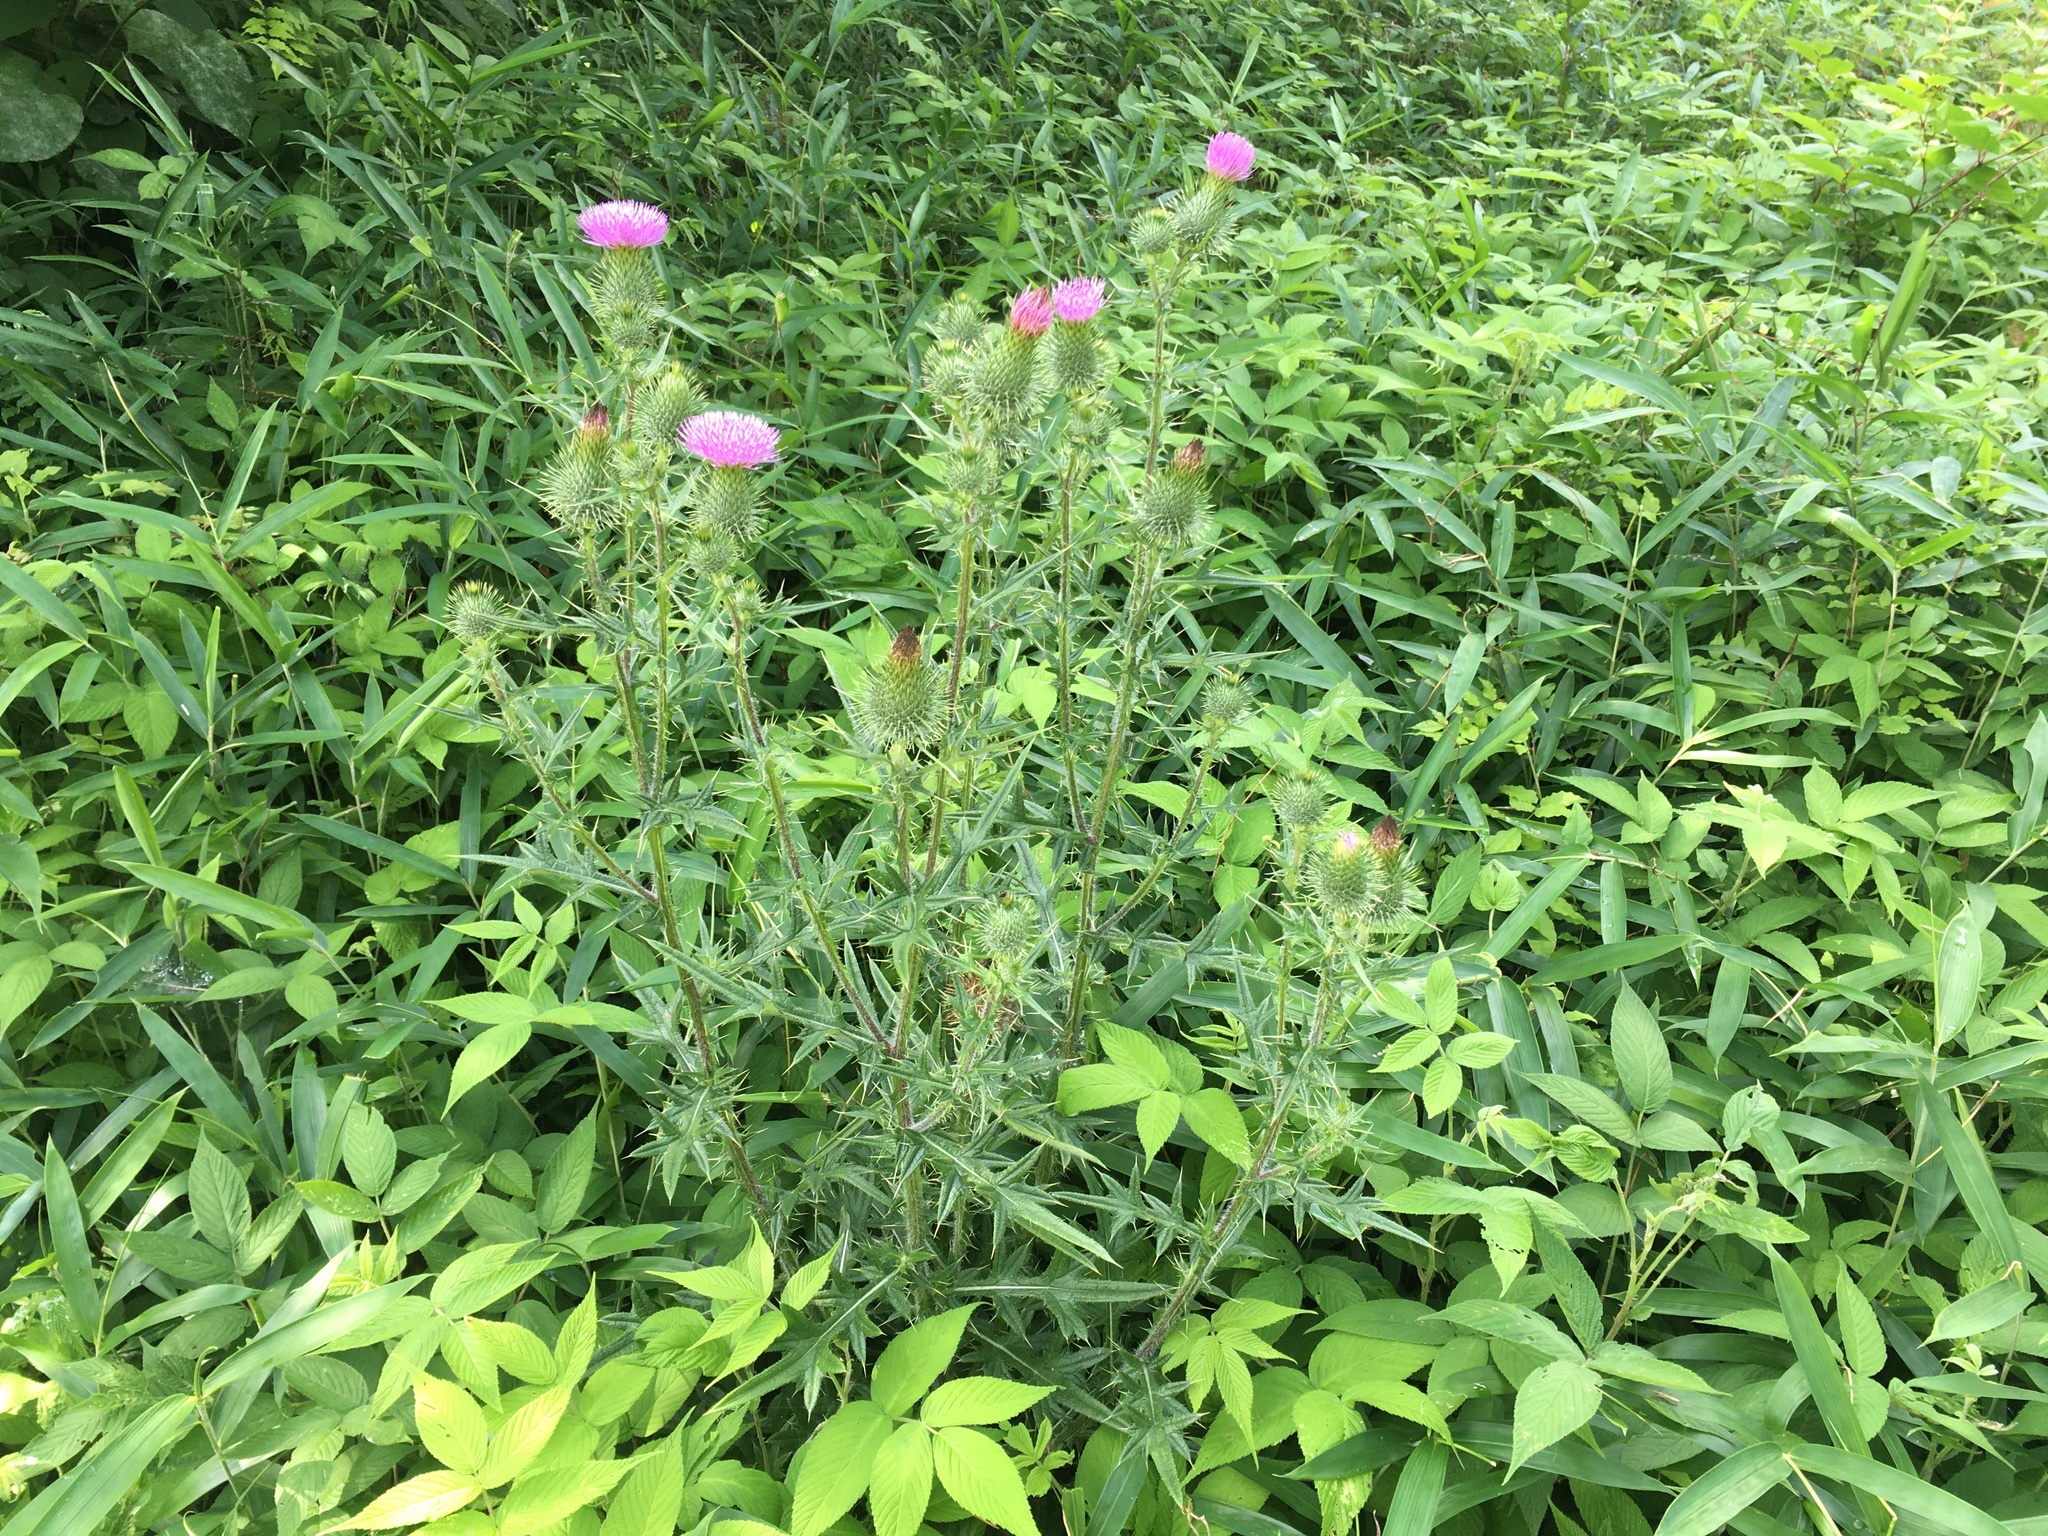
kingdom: Plantae
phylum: Tracheophyta
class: Magnoliopsida
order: Asterales
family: Asteraceae
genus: Cirsium
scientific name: Cirsium vulgare
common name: Bull thistle
